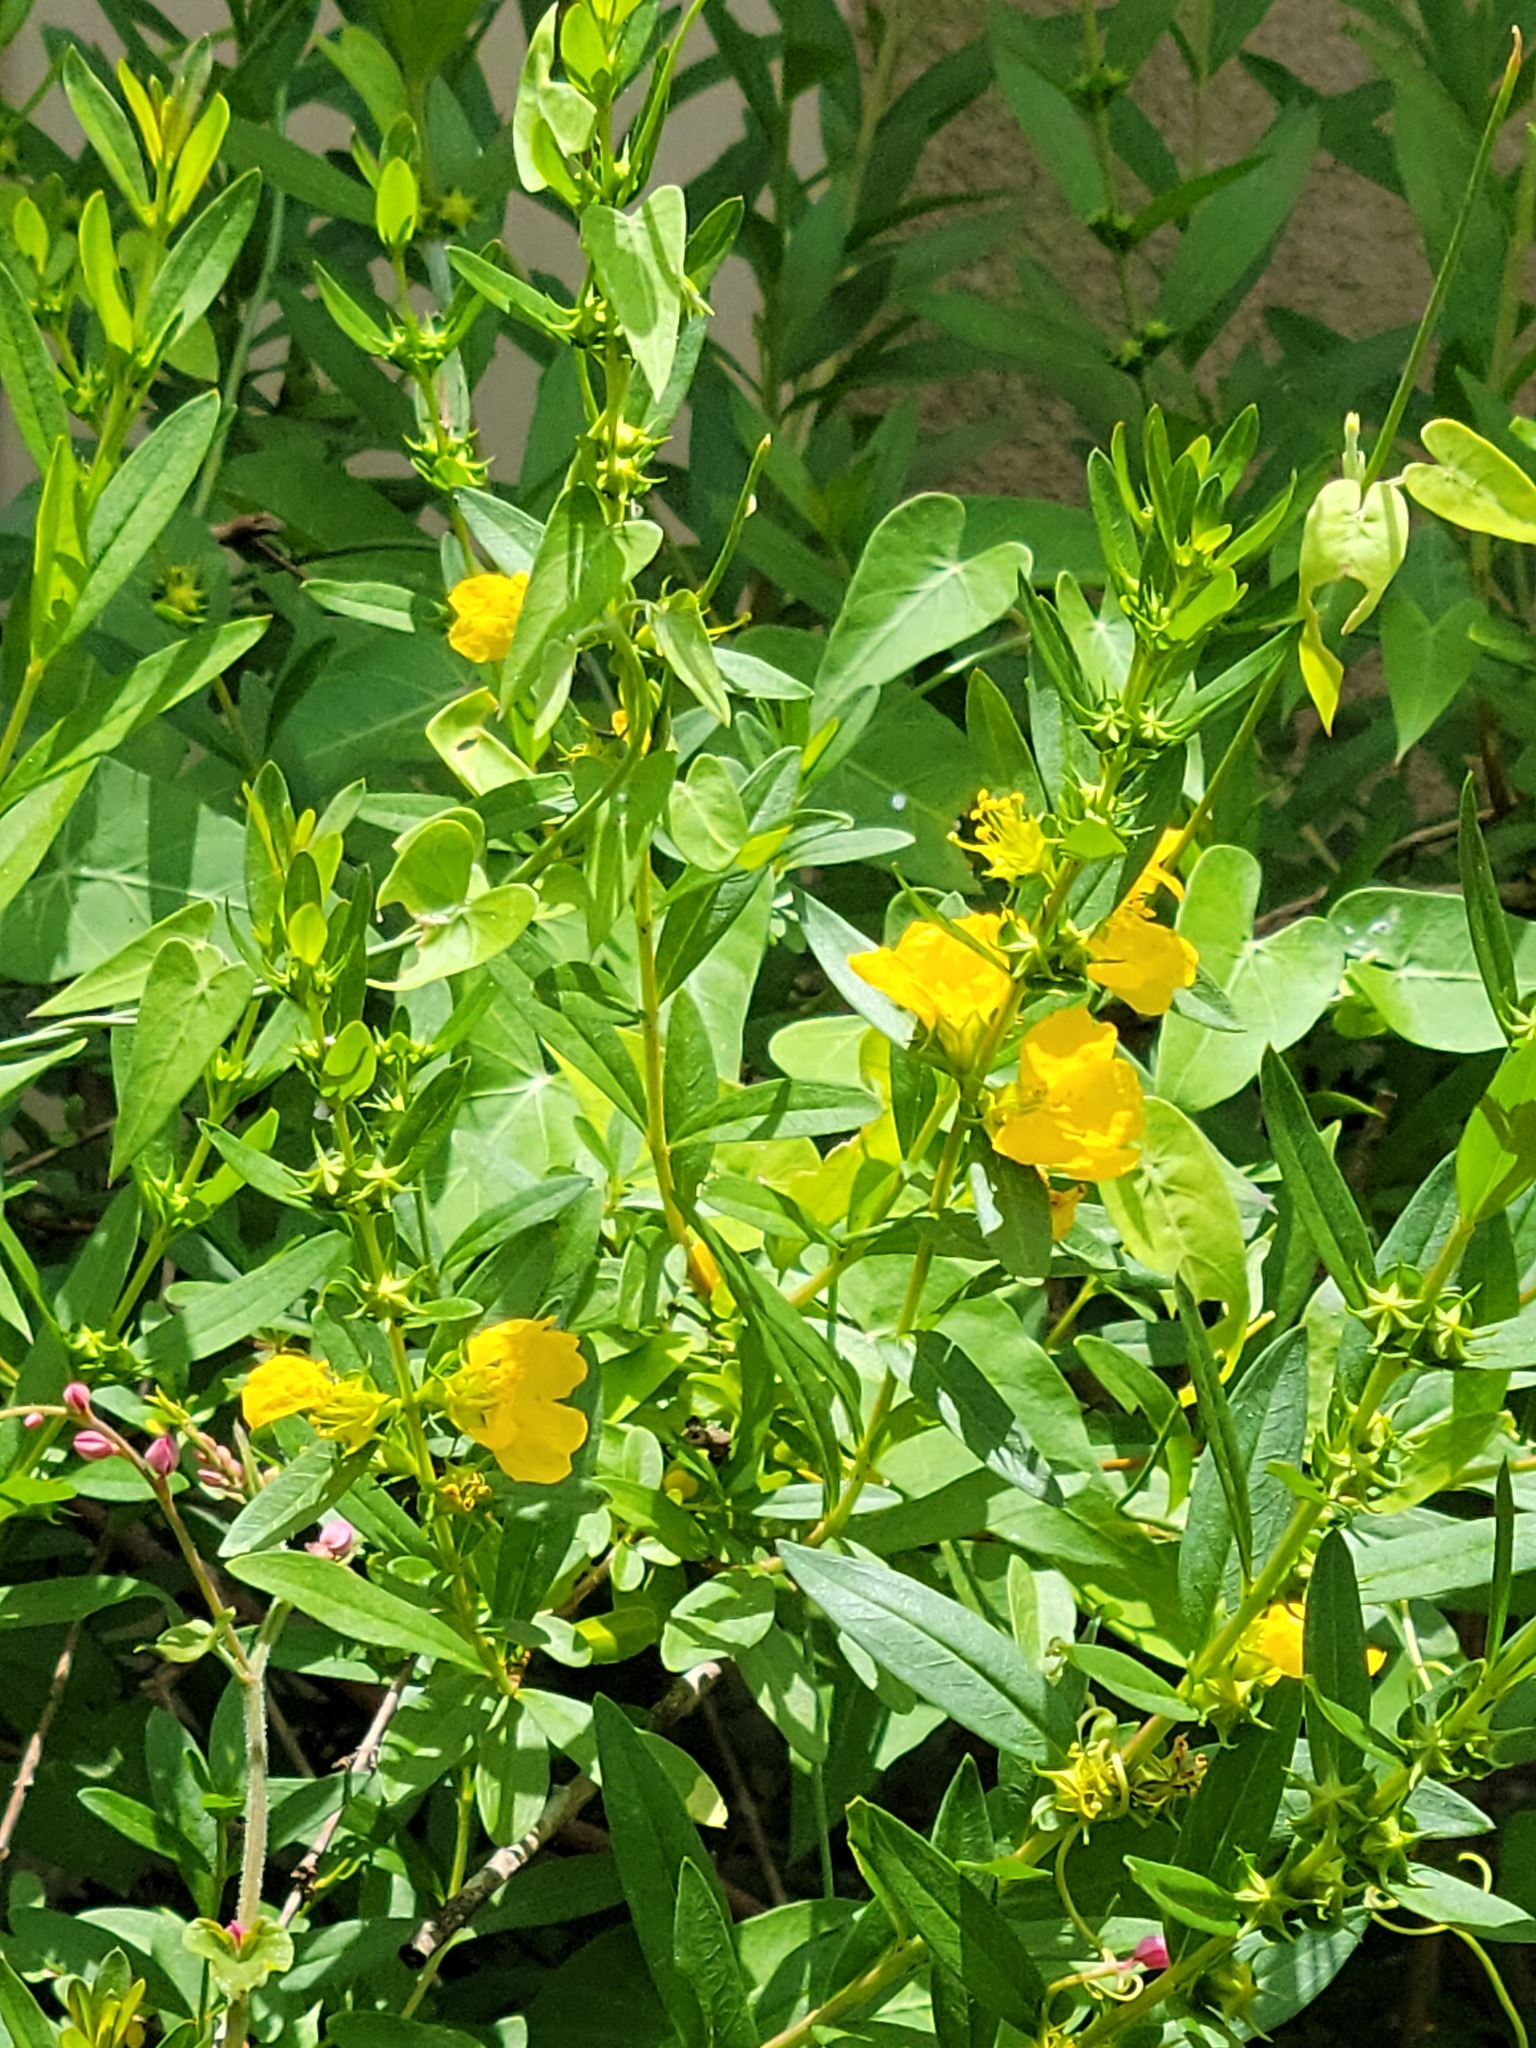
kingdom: Plantae
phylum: Tracheophyta
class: Magnoliopsida
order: Myrtales
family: Lythraceae
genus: Heimia
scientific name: Heimia salicifolia
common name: Willow-leaf heimia
